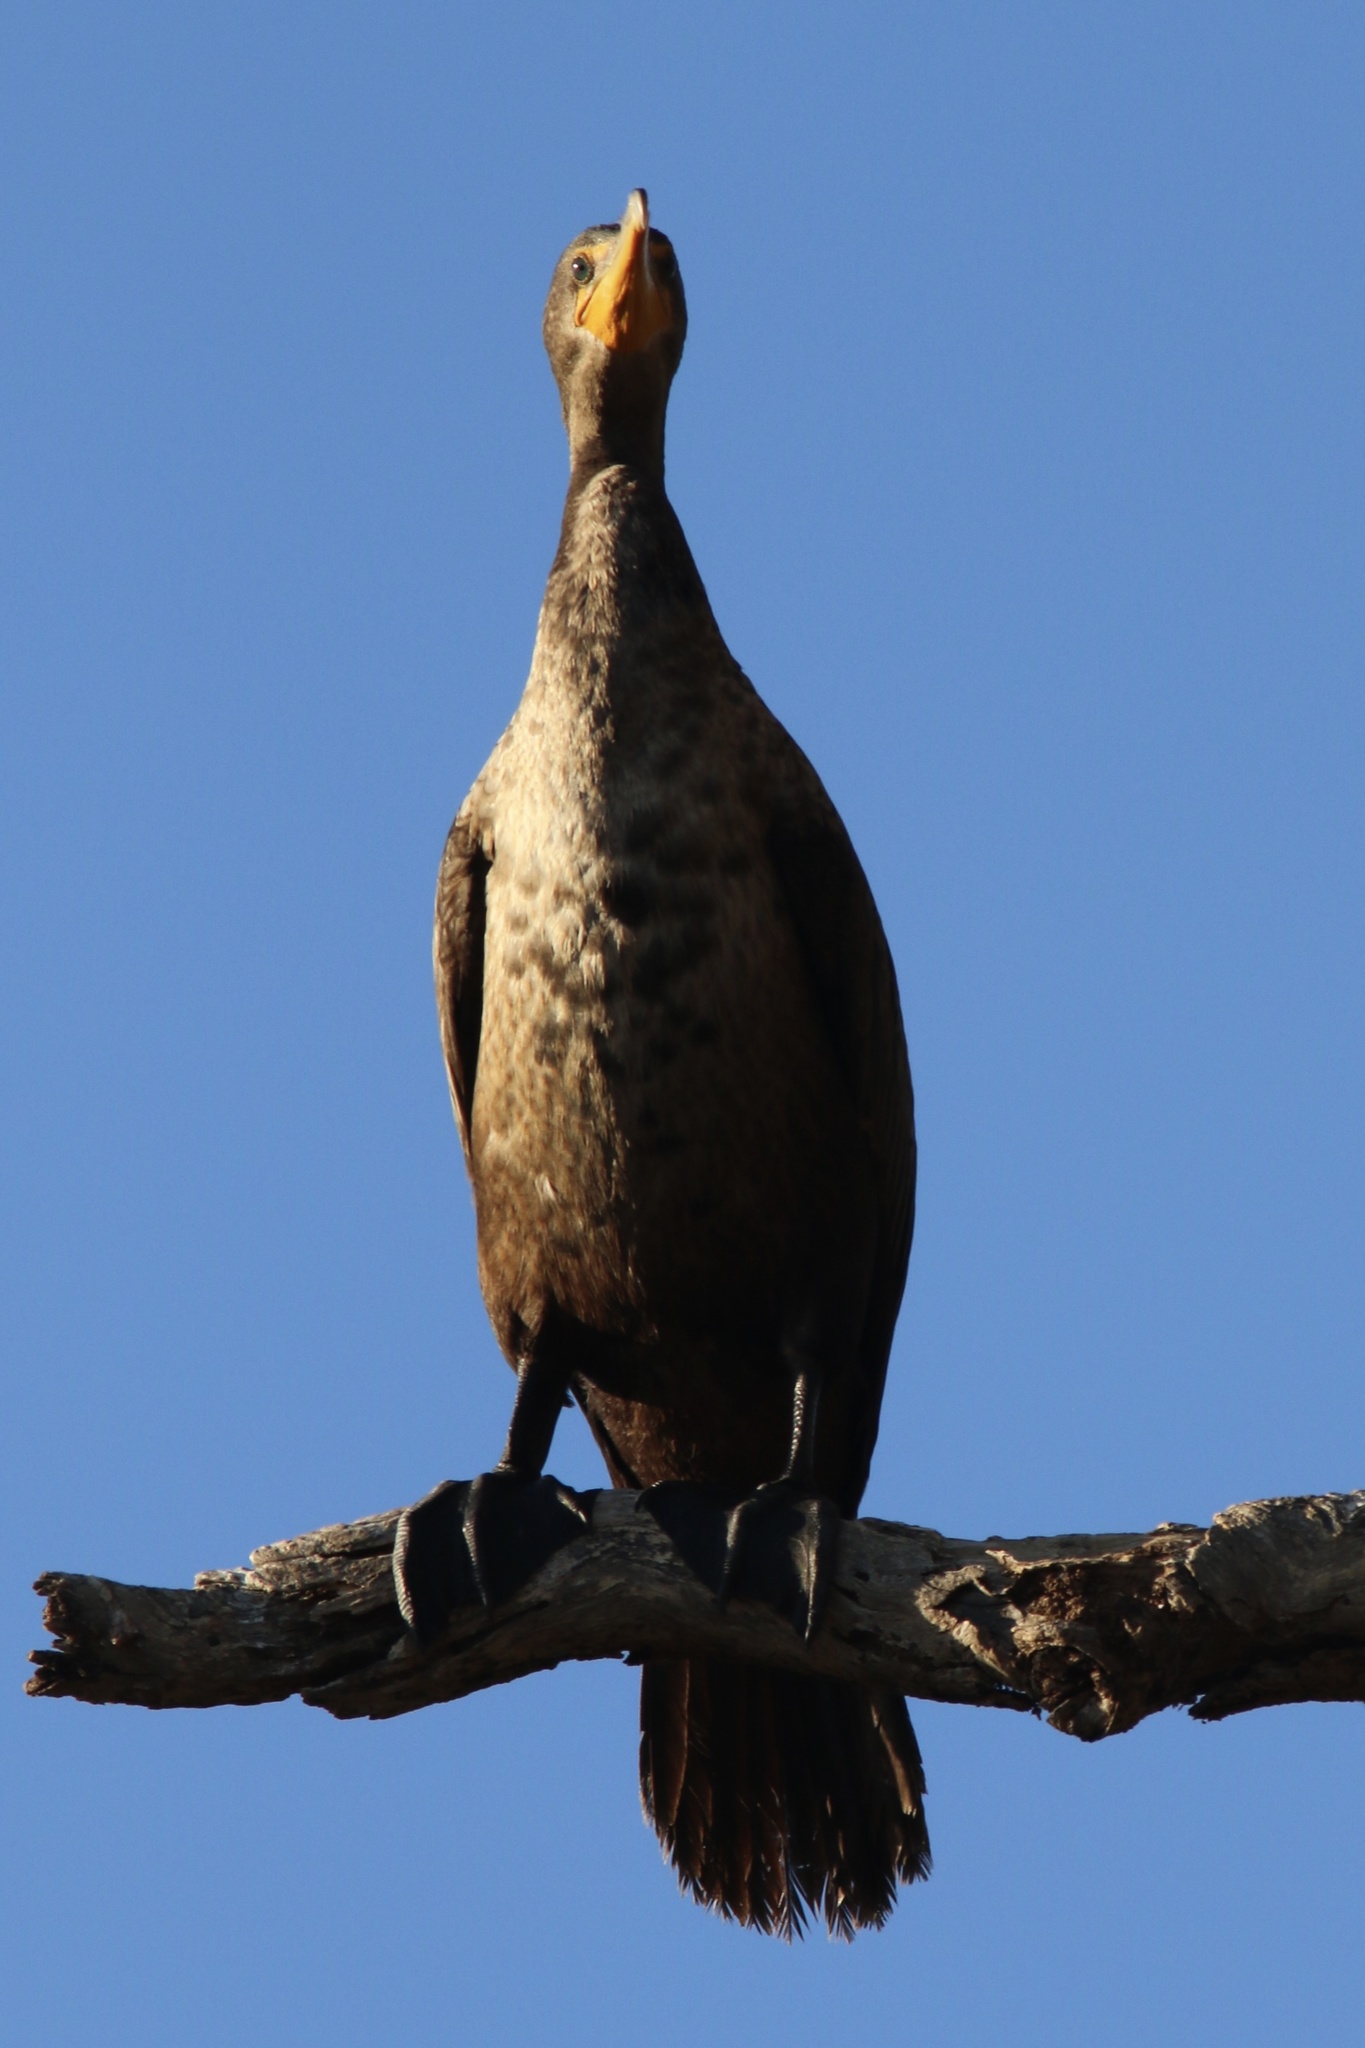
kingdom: Animalia
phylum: Chordata
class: Aves
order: Suliformes
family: Phalacrocoracidae
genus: Phalacrocorax
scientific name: Phalacrocorax auritus
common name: Double-crested cormorant
